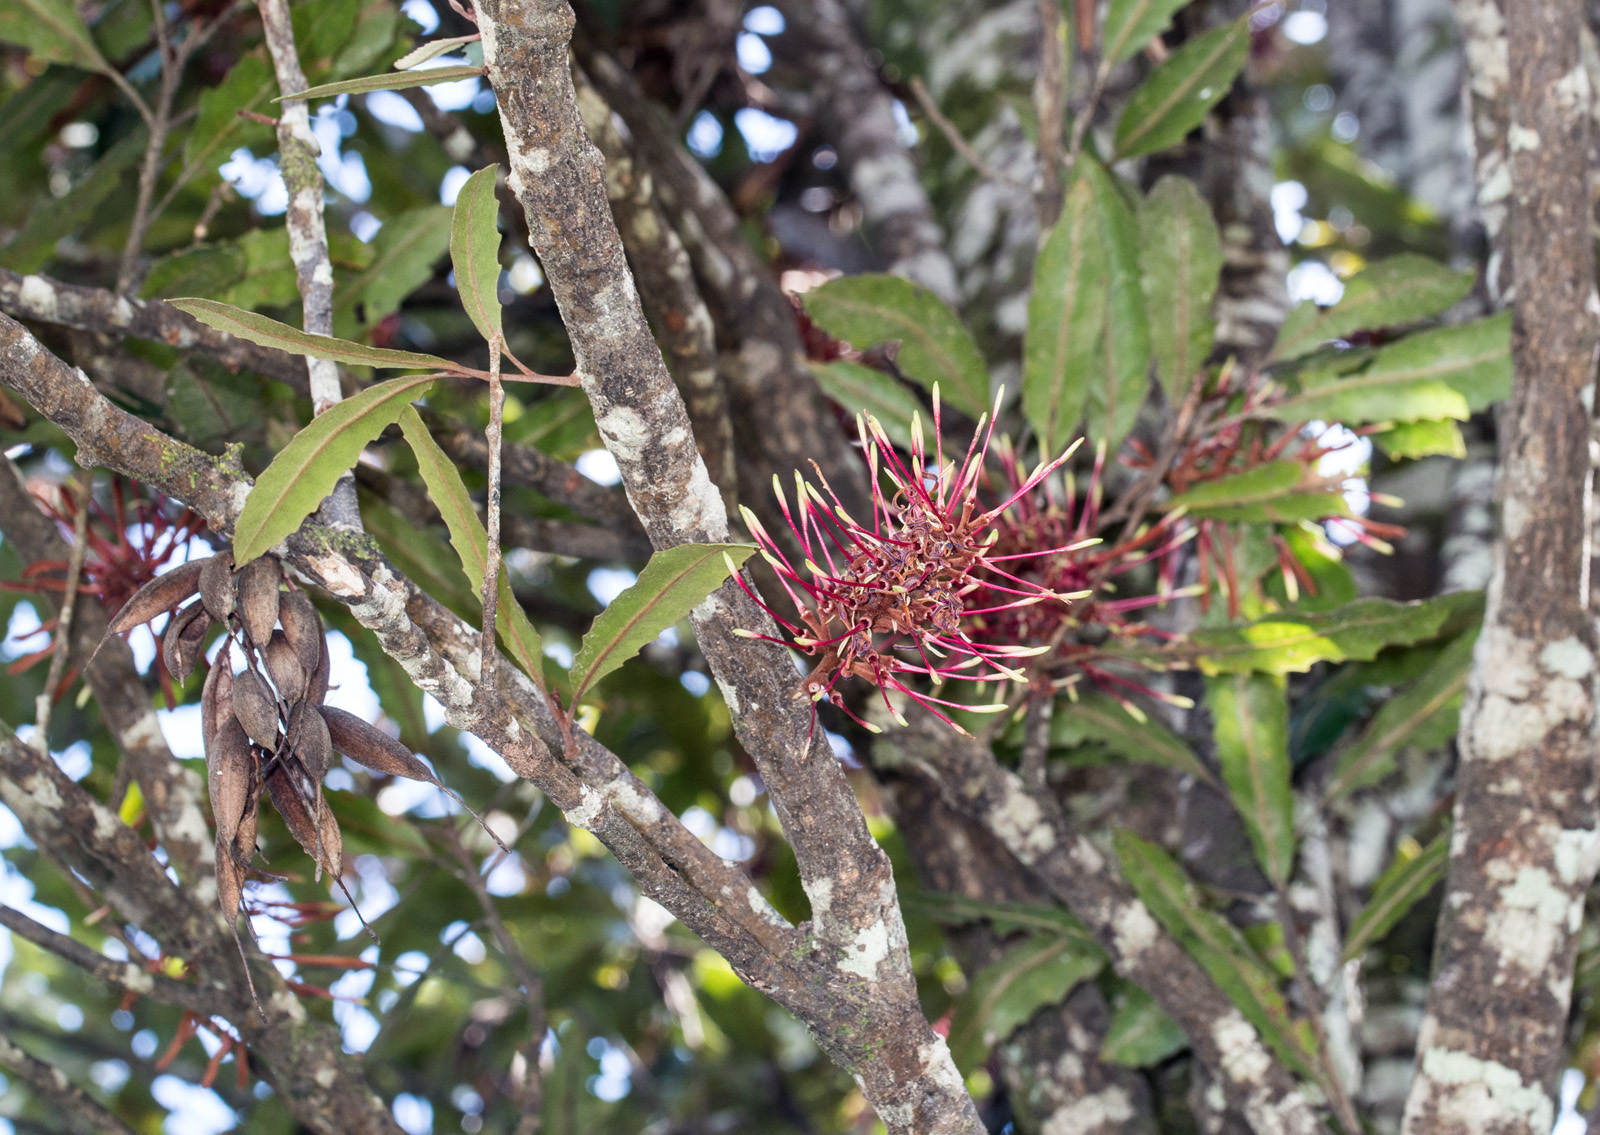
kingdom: Plantae
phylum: Tracheophyta
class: Magnoliopsida
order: Proteales
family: Proteaceae
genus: Knightia
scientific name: Knightia excelsa
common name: New zealand-honeysuckle
